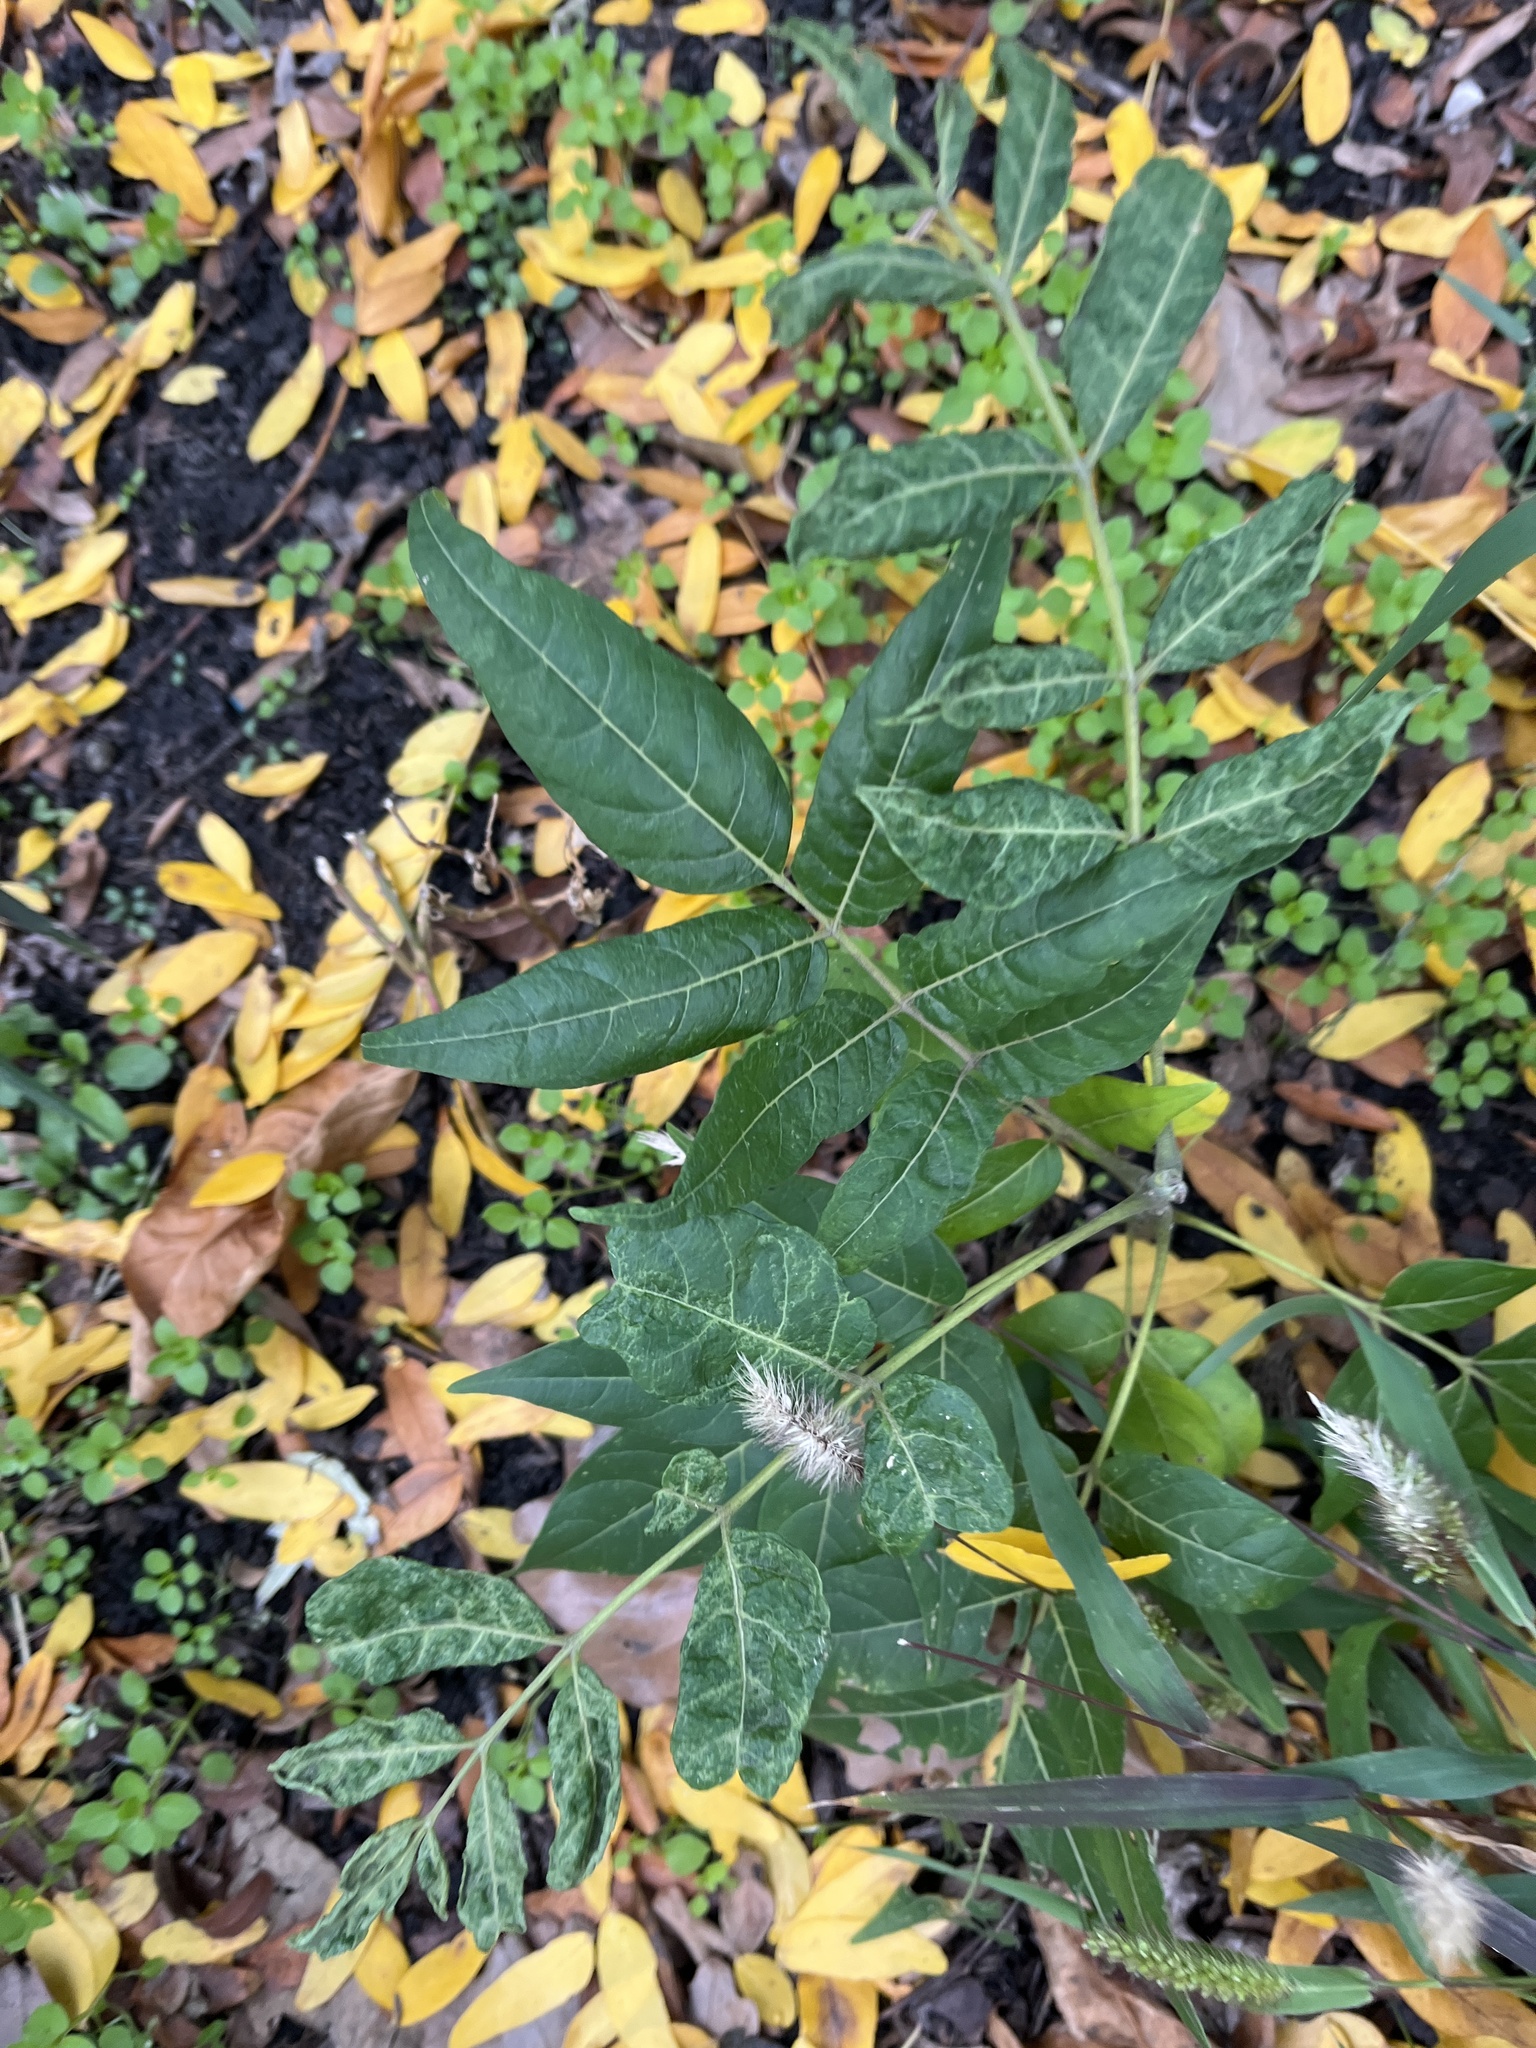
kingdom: Plantae
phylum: Tracheophyta
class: Magnoliopsida
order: Sapindales
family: Simaroubaceae
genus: Ailanthus
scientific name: Ailanthus altissima
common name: Tree-of-heaven
